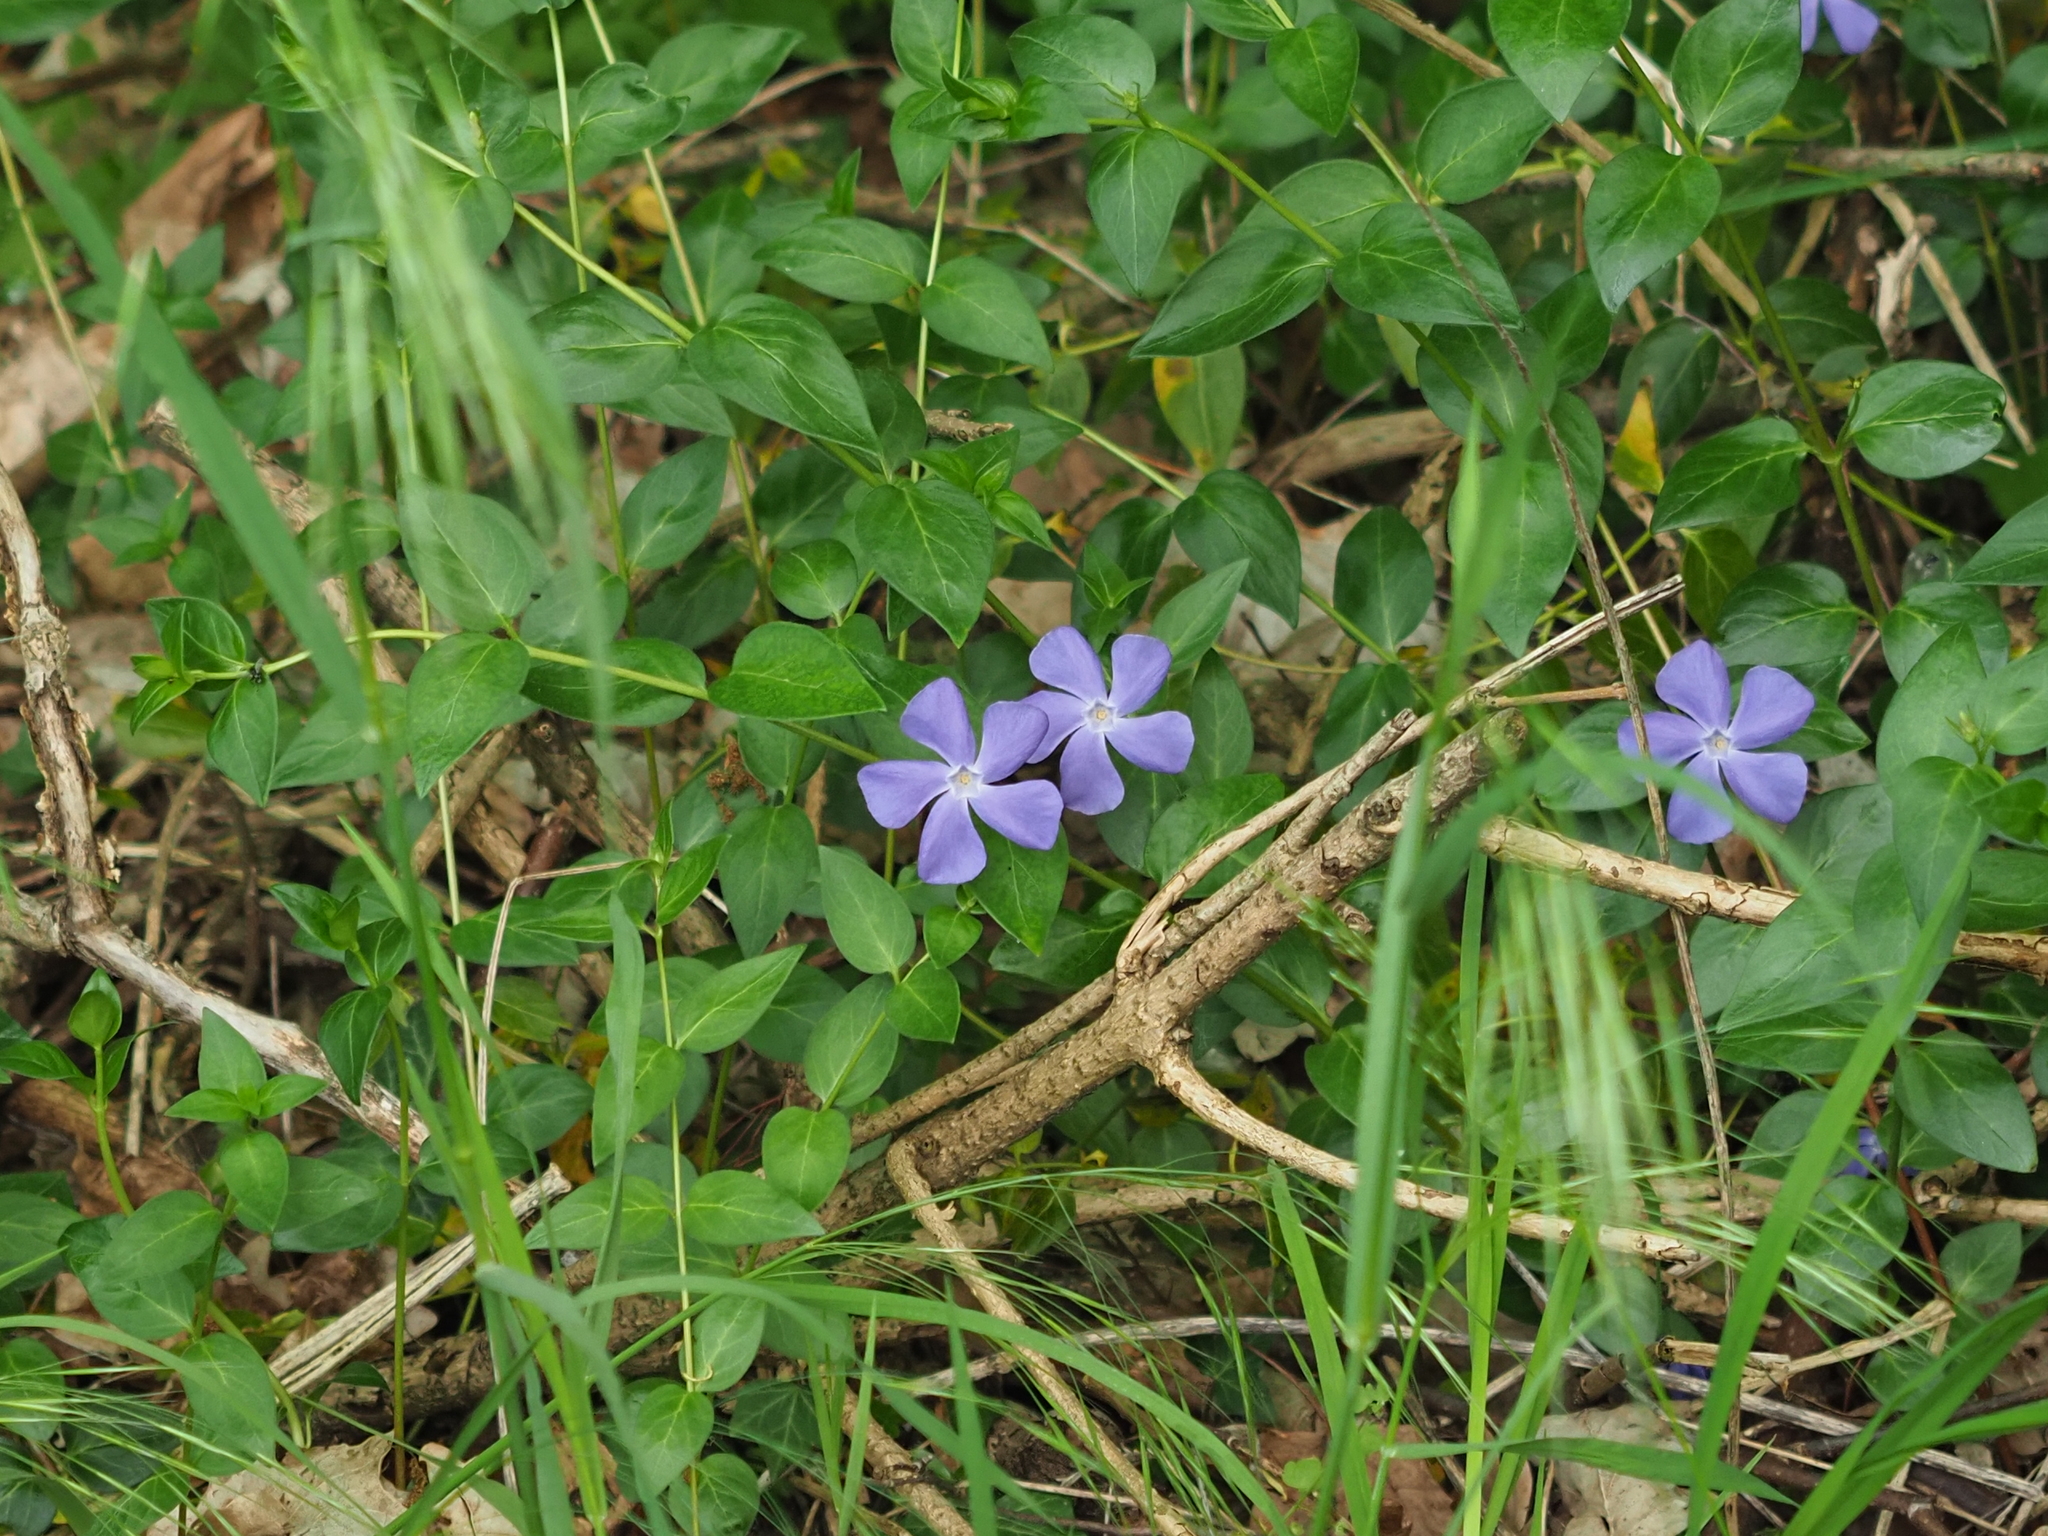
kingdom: Plantae
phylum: Tracheophyta
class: Magnoliopsida
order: Gentianales
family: Apocynaceae
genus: Vinca
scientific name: Vinca major
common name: Greater periwinkle
